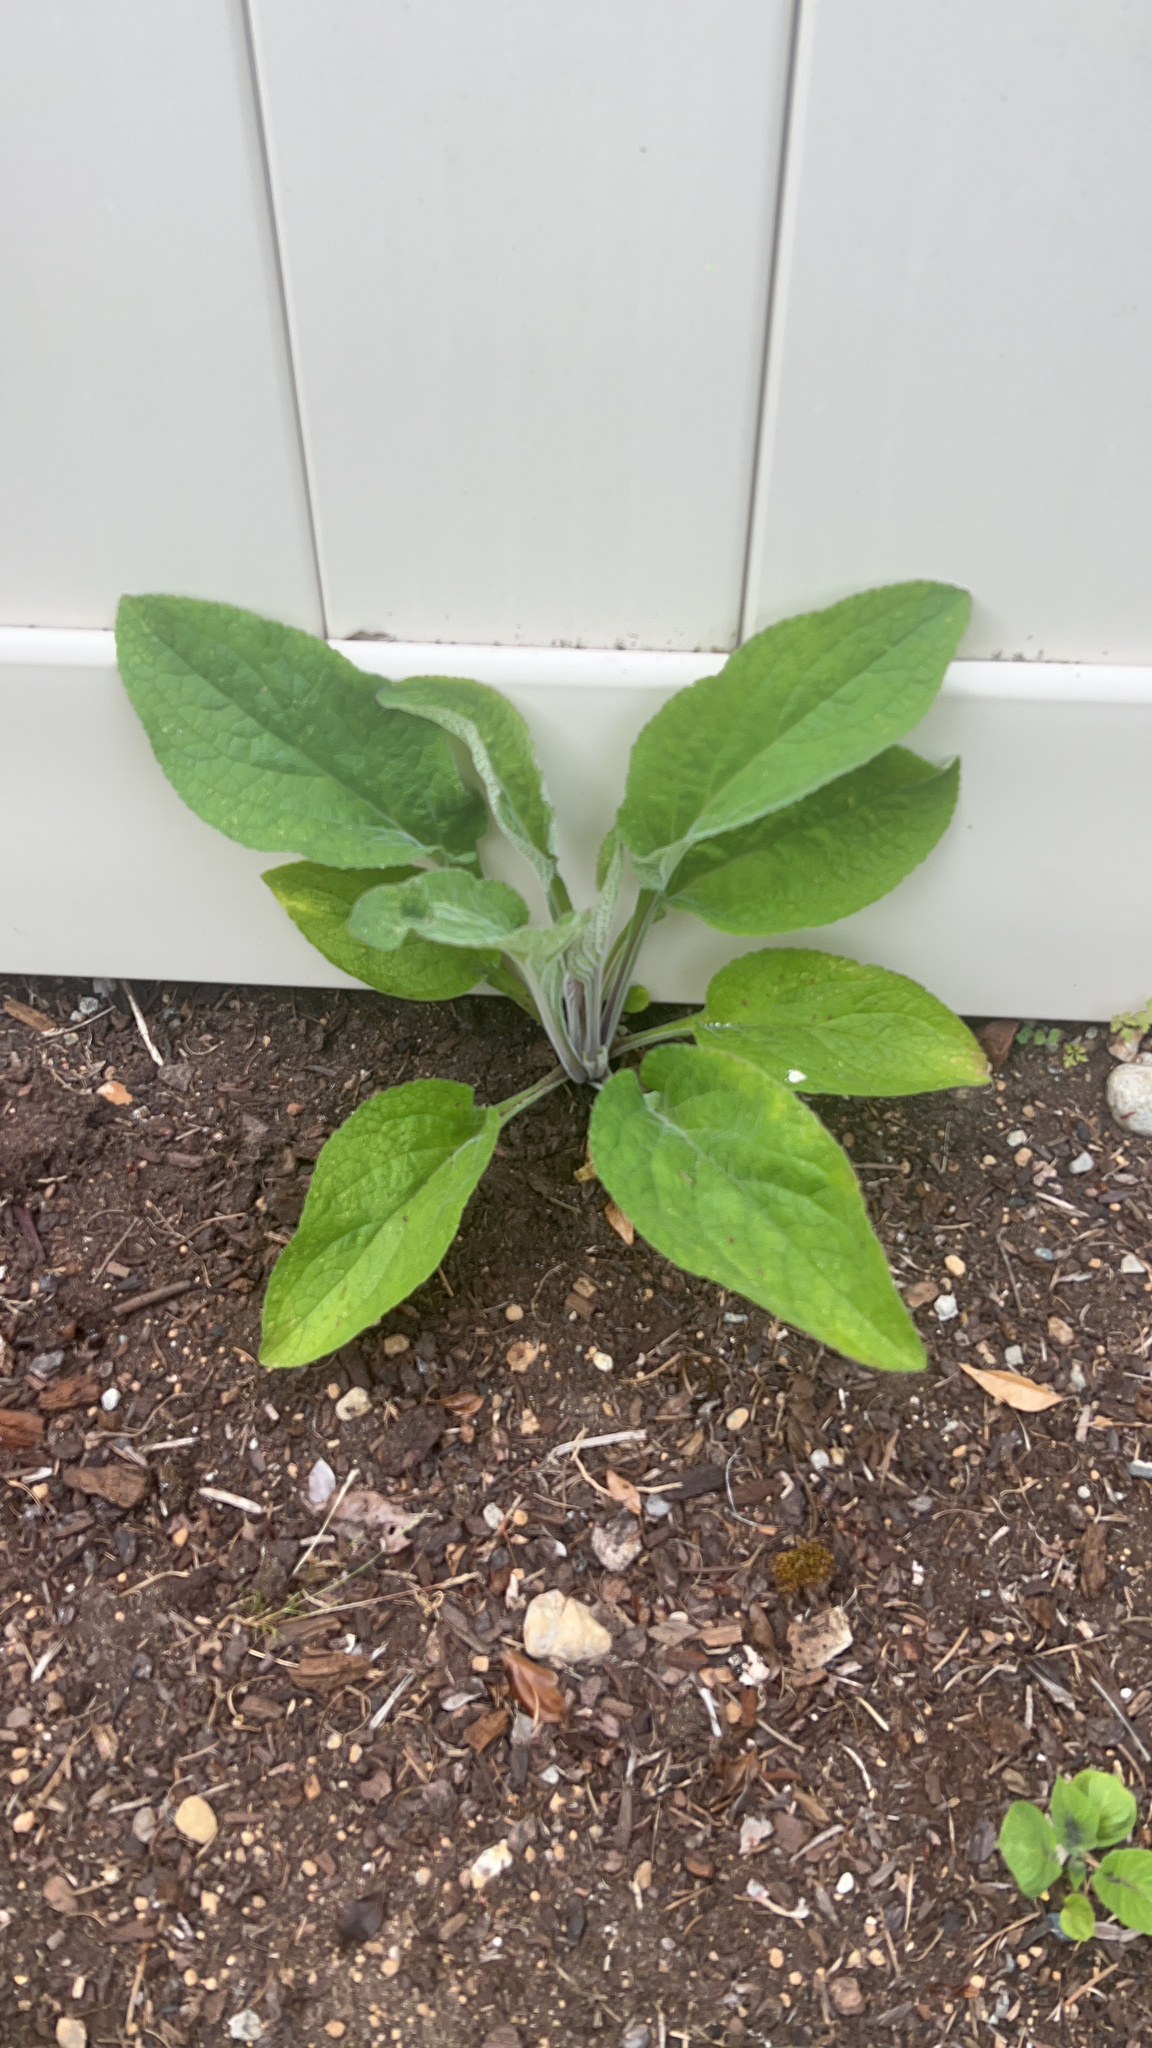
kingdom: Plantae
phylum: Tracheophyta
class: Magnoliopsida
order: Lamiales
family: Plantaginaceae
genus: Digitalis
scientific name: Digitalis purpurea
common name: Foxglove
